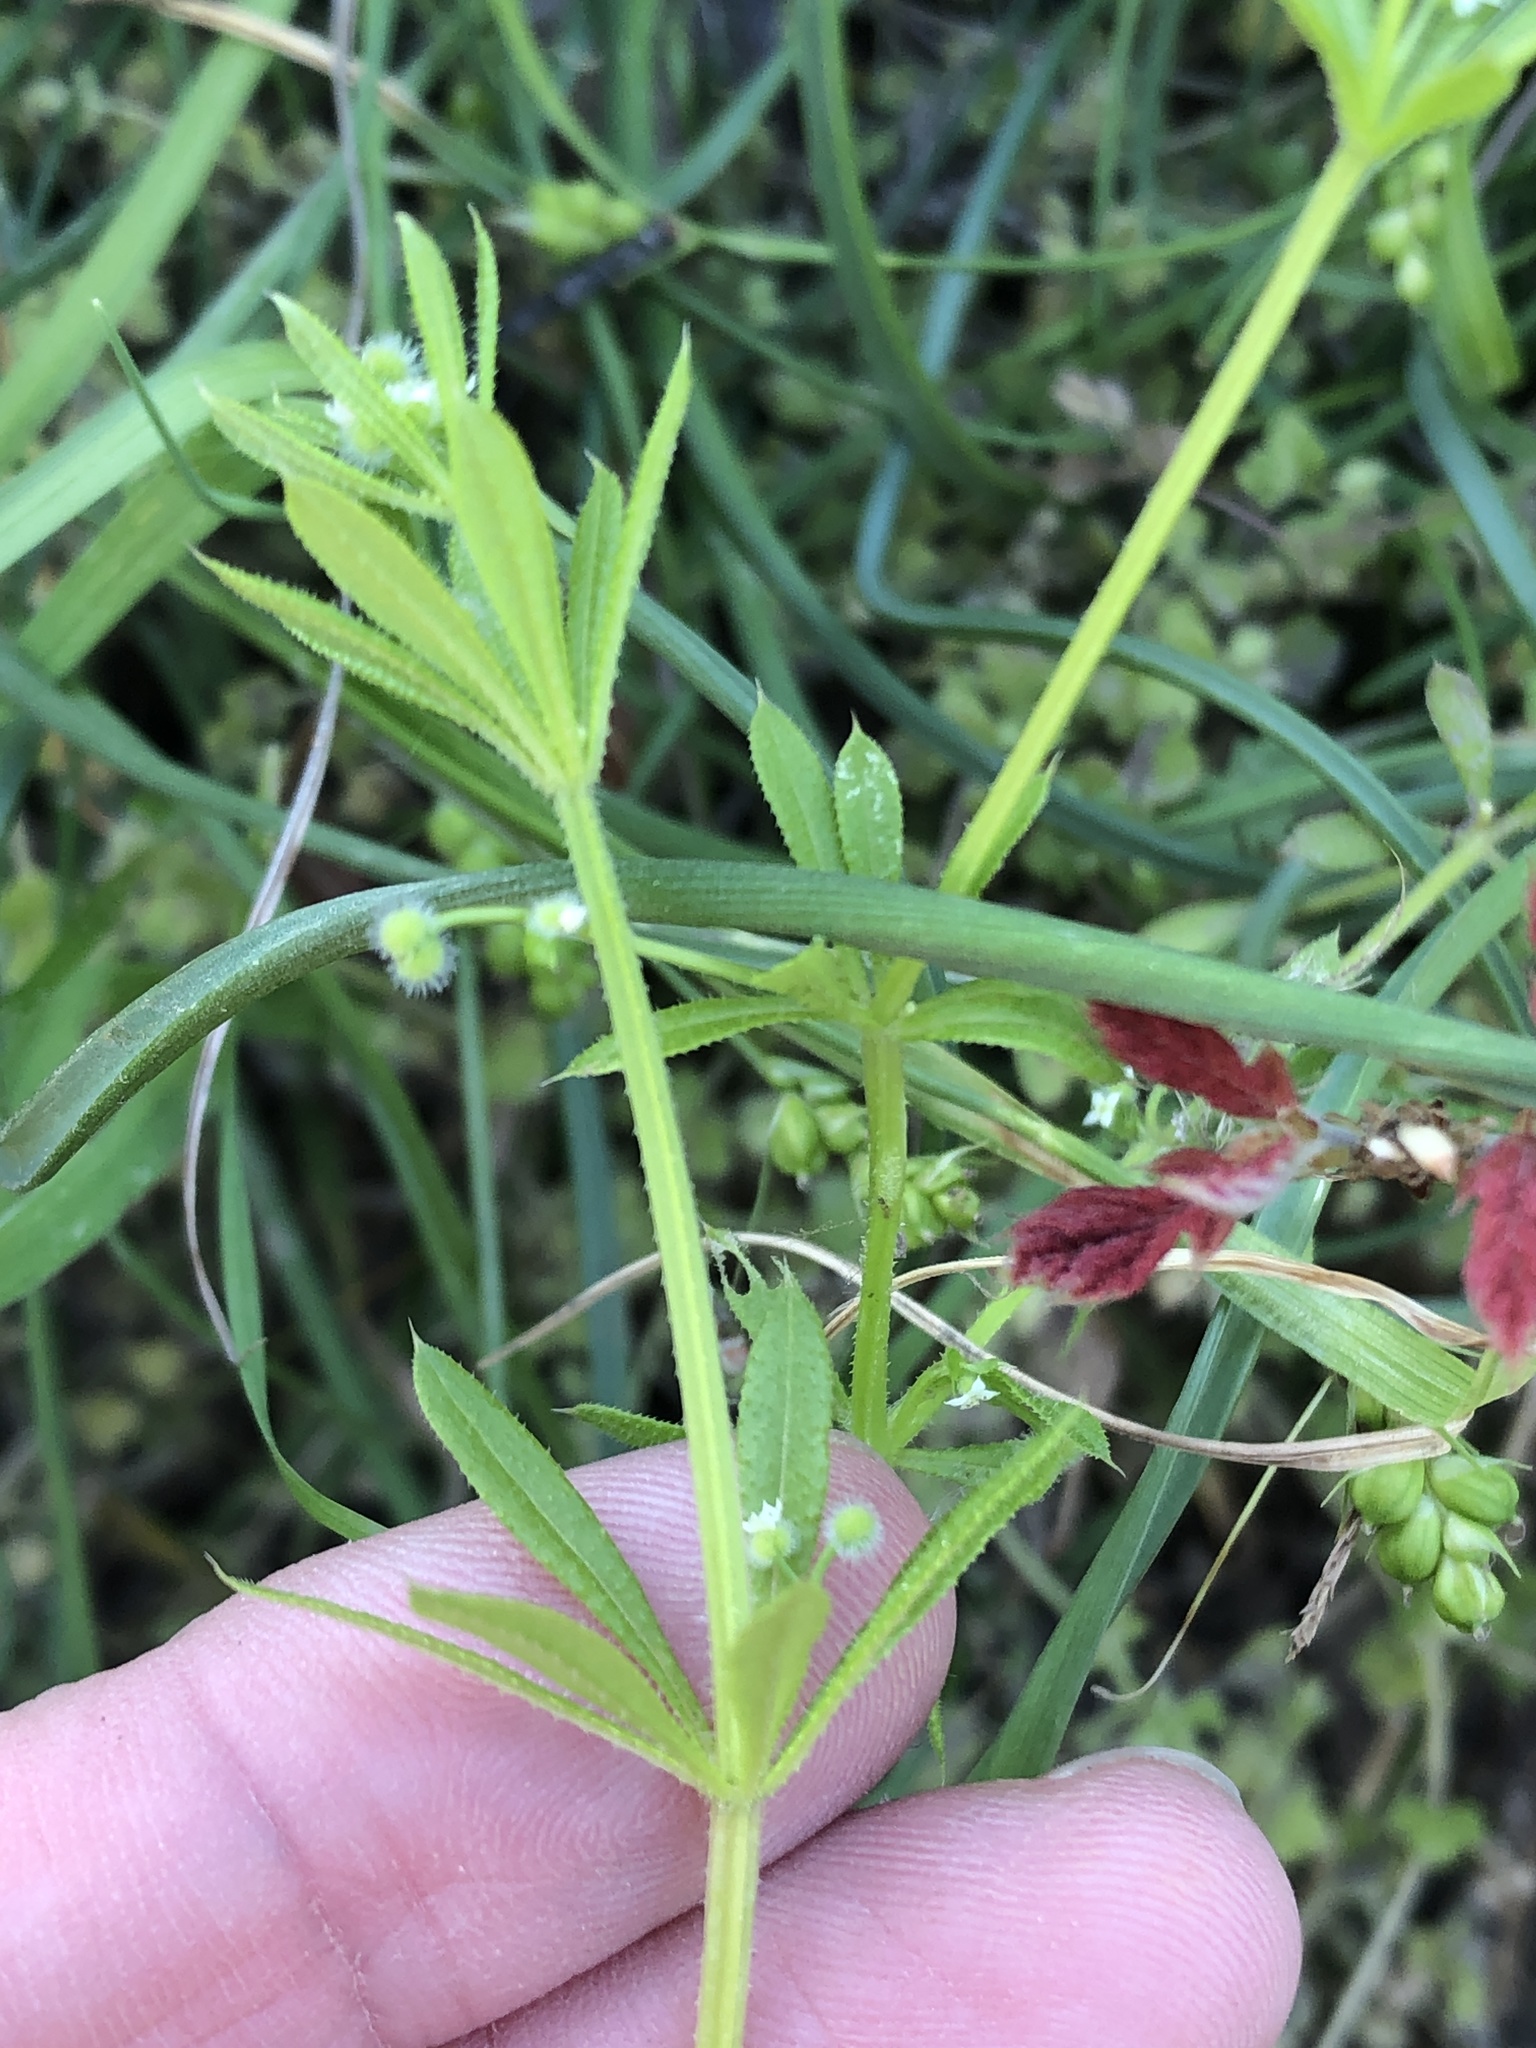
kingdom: Plantae
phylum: Tracheophyta
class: Magnoliopsida
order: Gentianales
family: Rubiaceae
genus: Galium
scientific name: Galium aparine
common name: Cleavers
